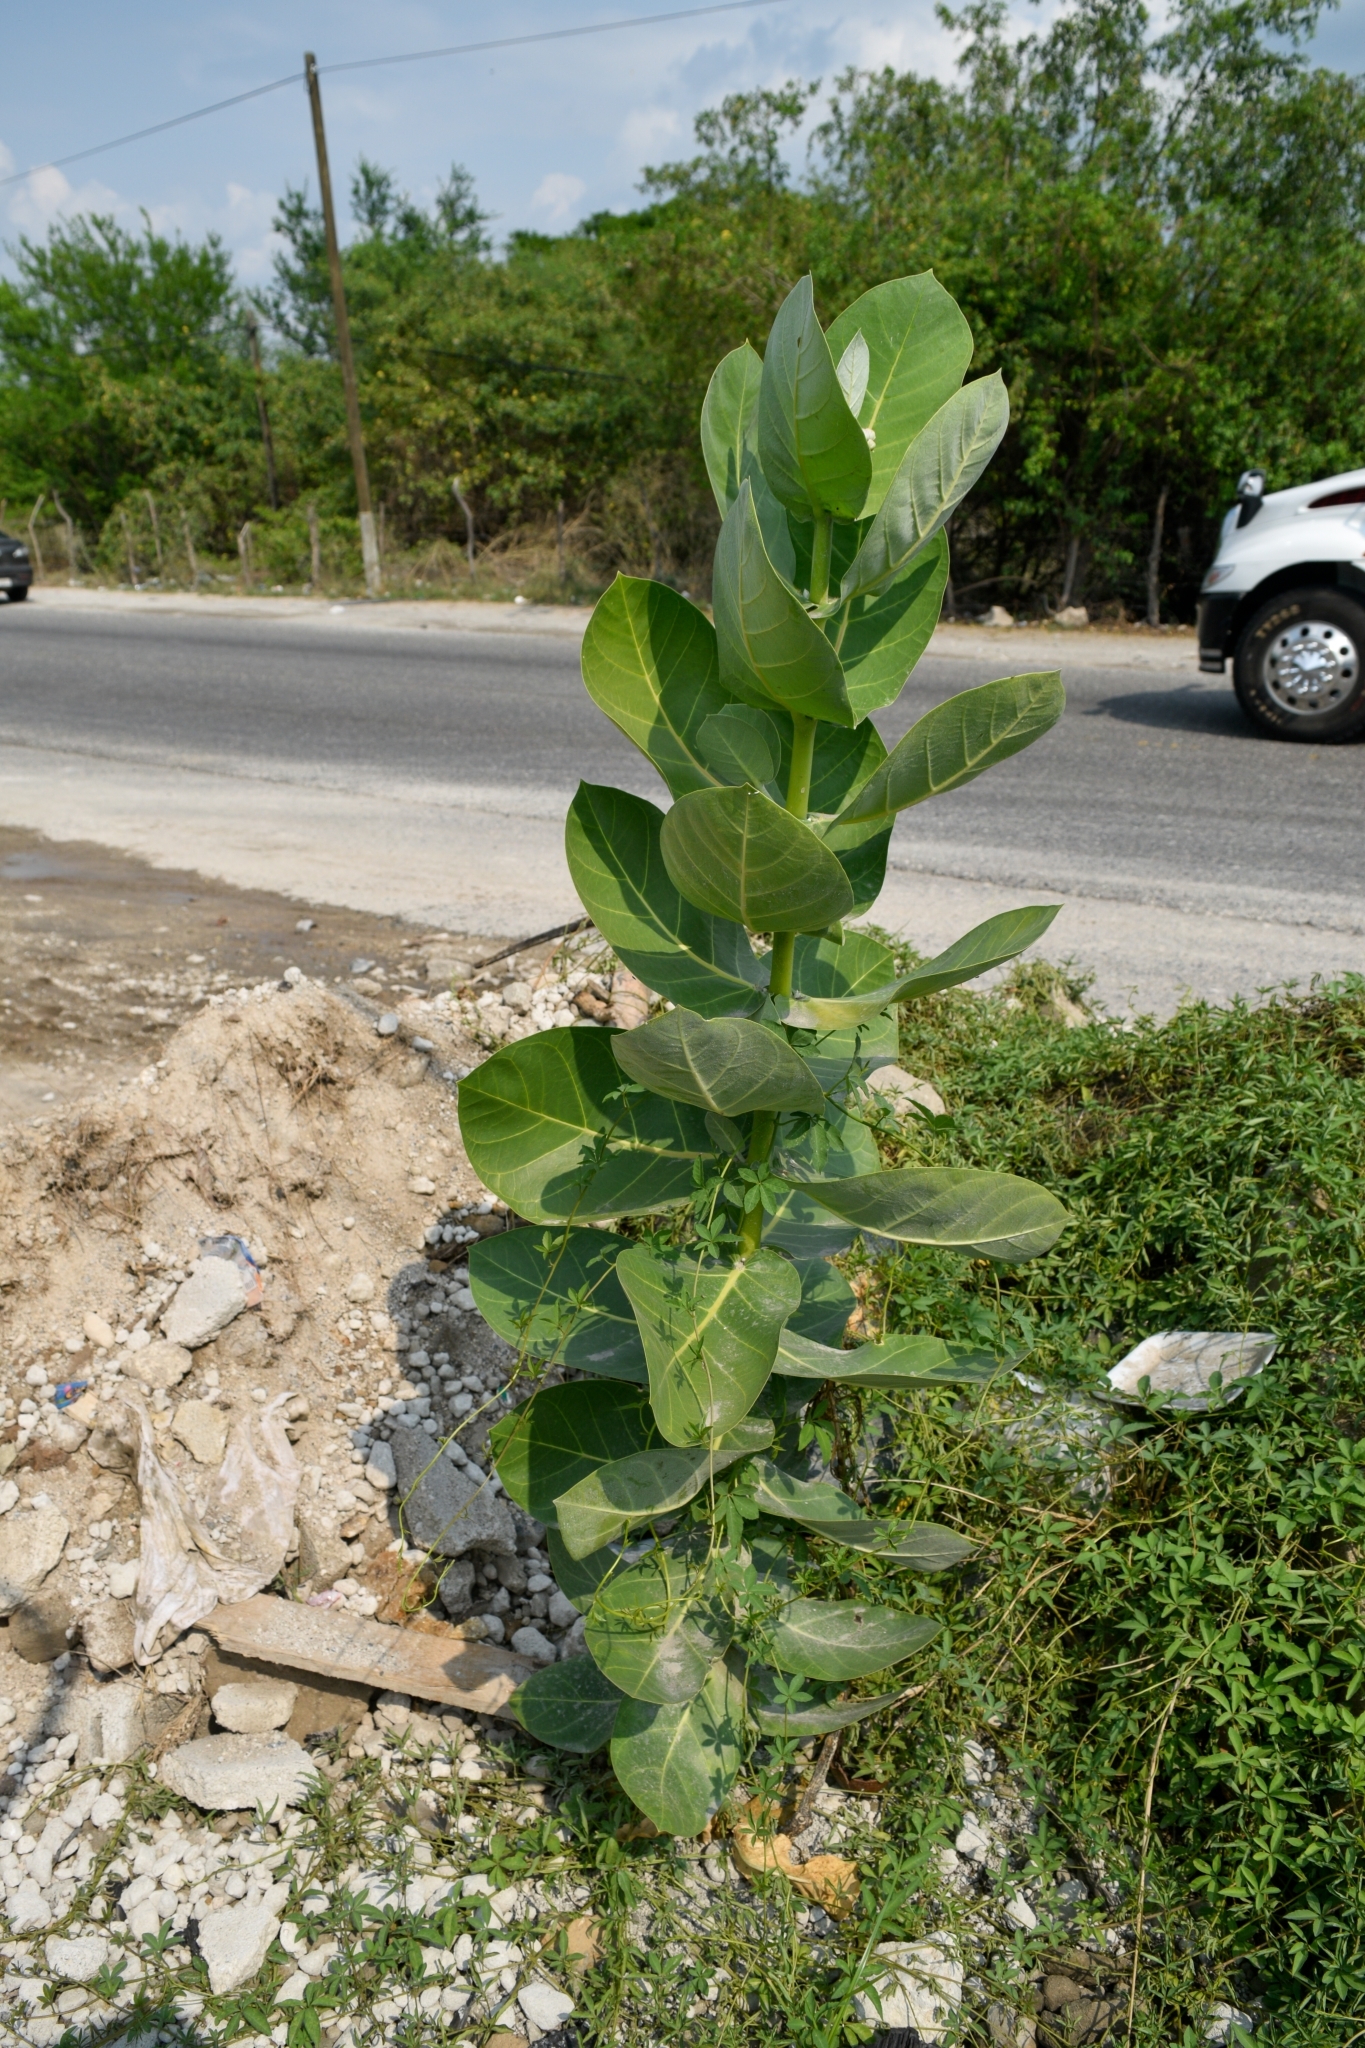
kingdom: Plantae
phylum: Tracheophyta
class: Magnoliopsida
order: Gentianales
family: Apocynaceae
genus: Calotropis
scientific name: Calotropis procera
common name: Roostertree
